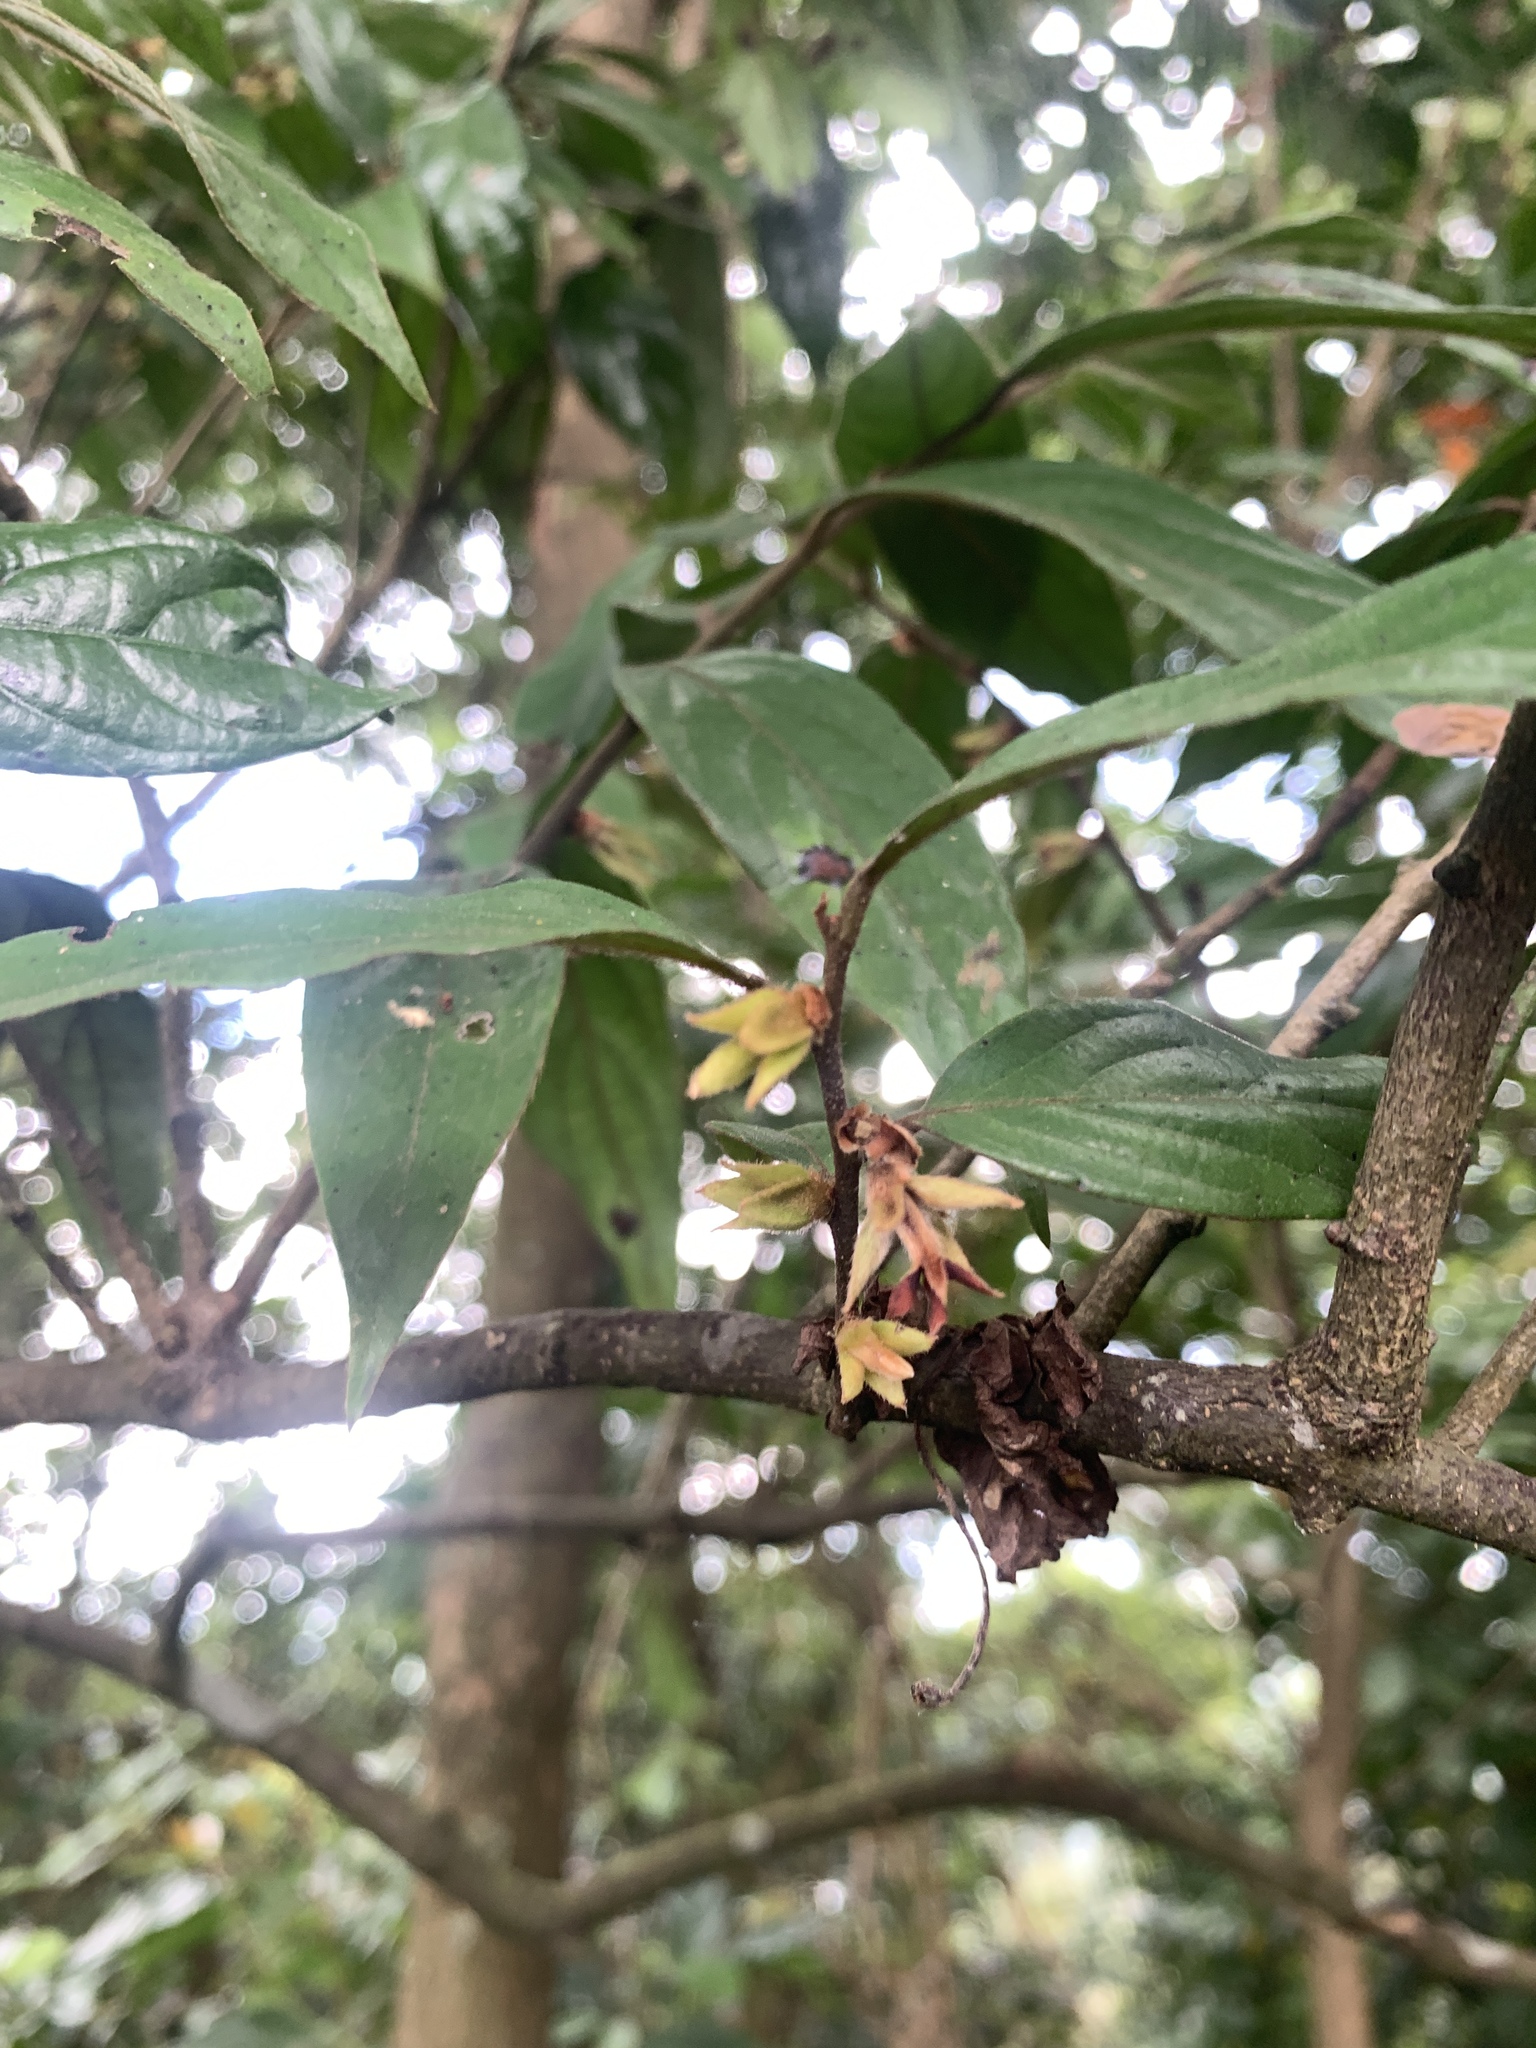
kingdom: Plantae
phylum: Tracheophyta
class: Magnoliopsida
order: Ericales
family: Ebenaceae
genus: Diospyros
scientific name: Diospyros eriantha
